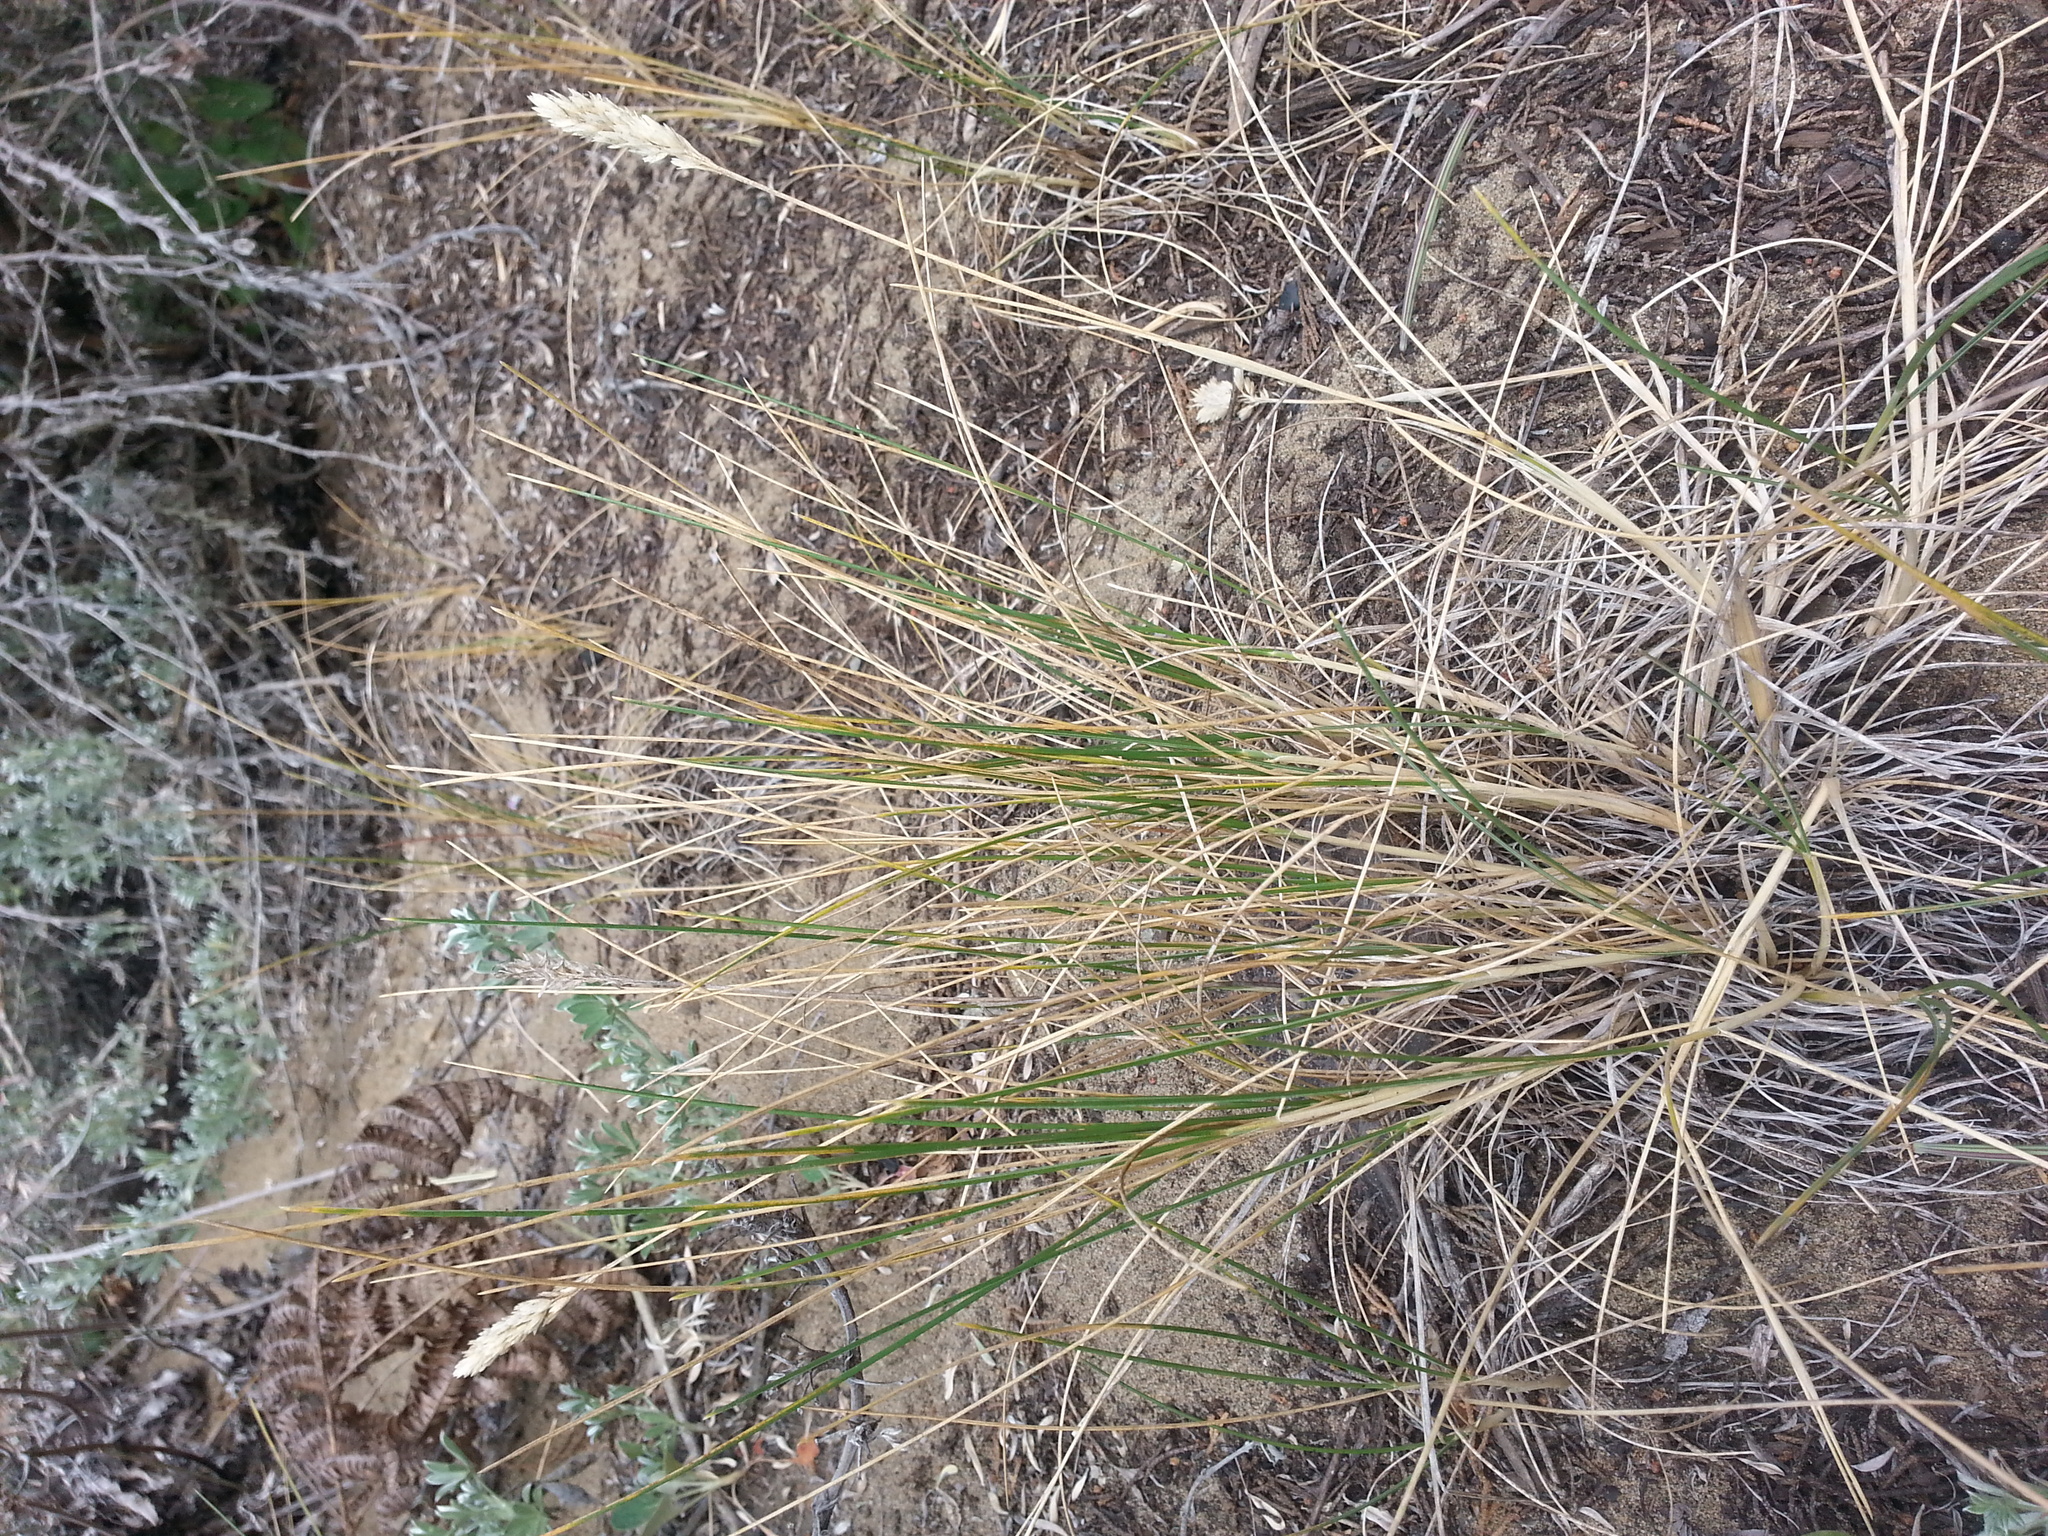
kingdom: Plantae
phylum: Tracheophyta
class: Liliopsida
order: Poales
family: Poaceae
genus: Poa
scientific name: Poa douglasii
